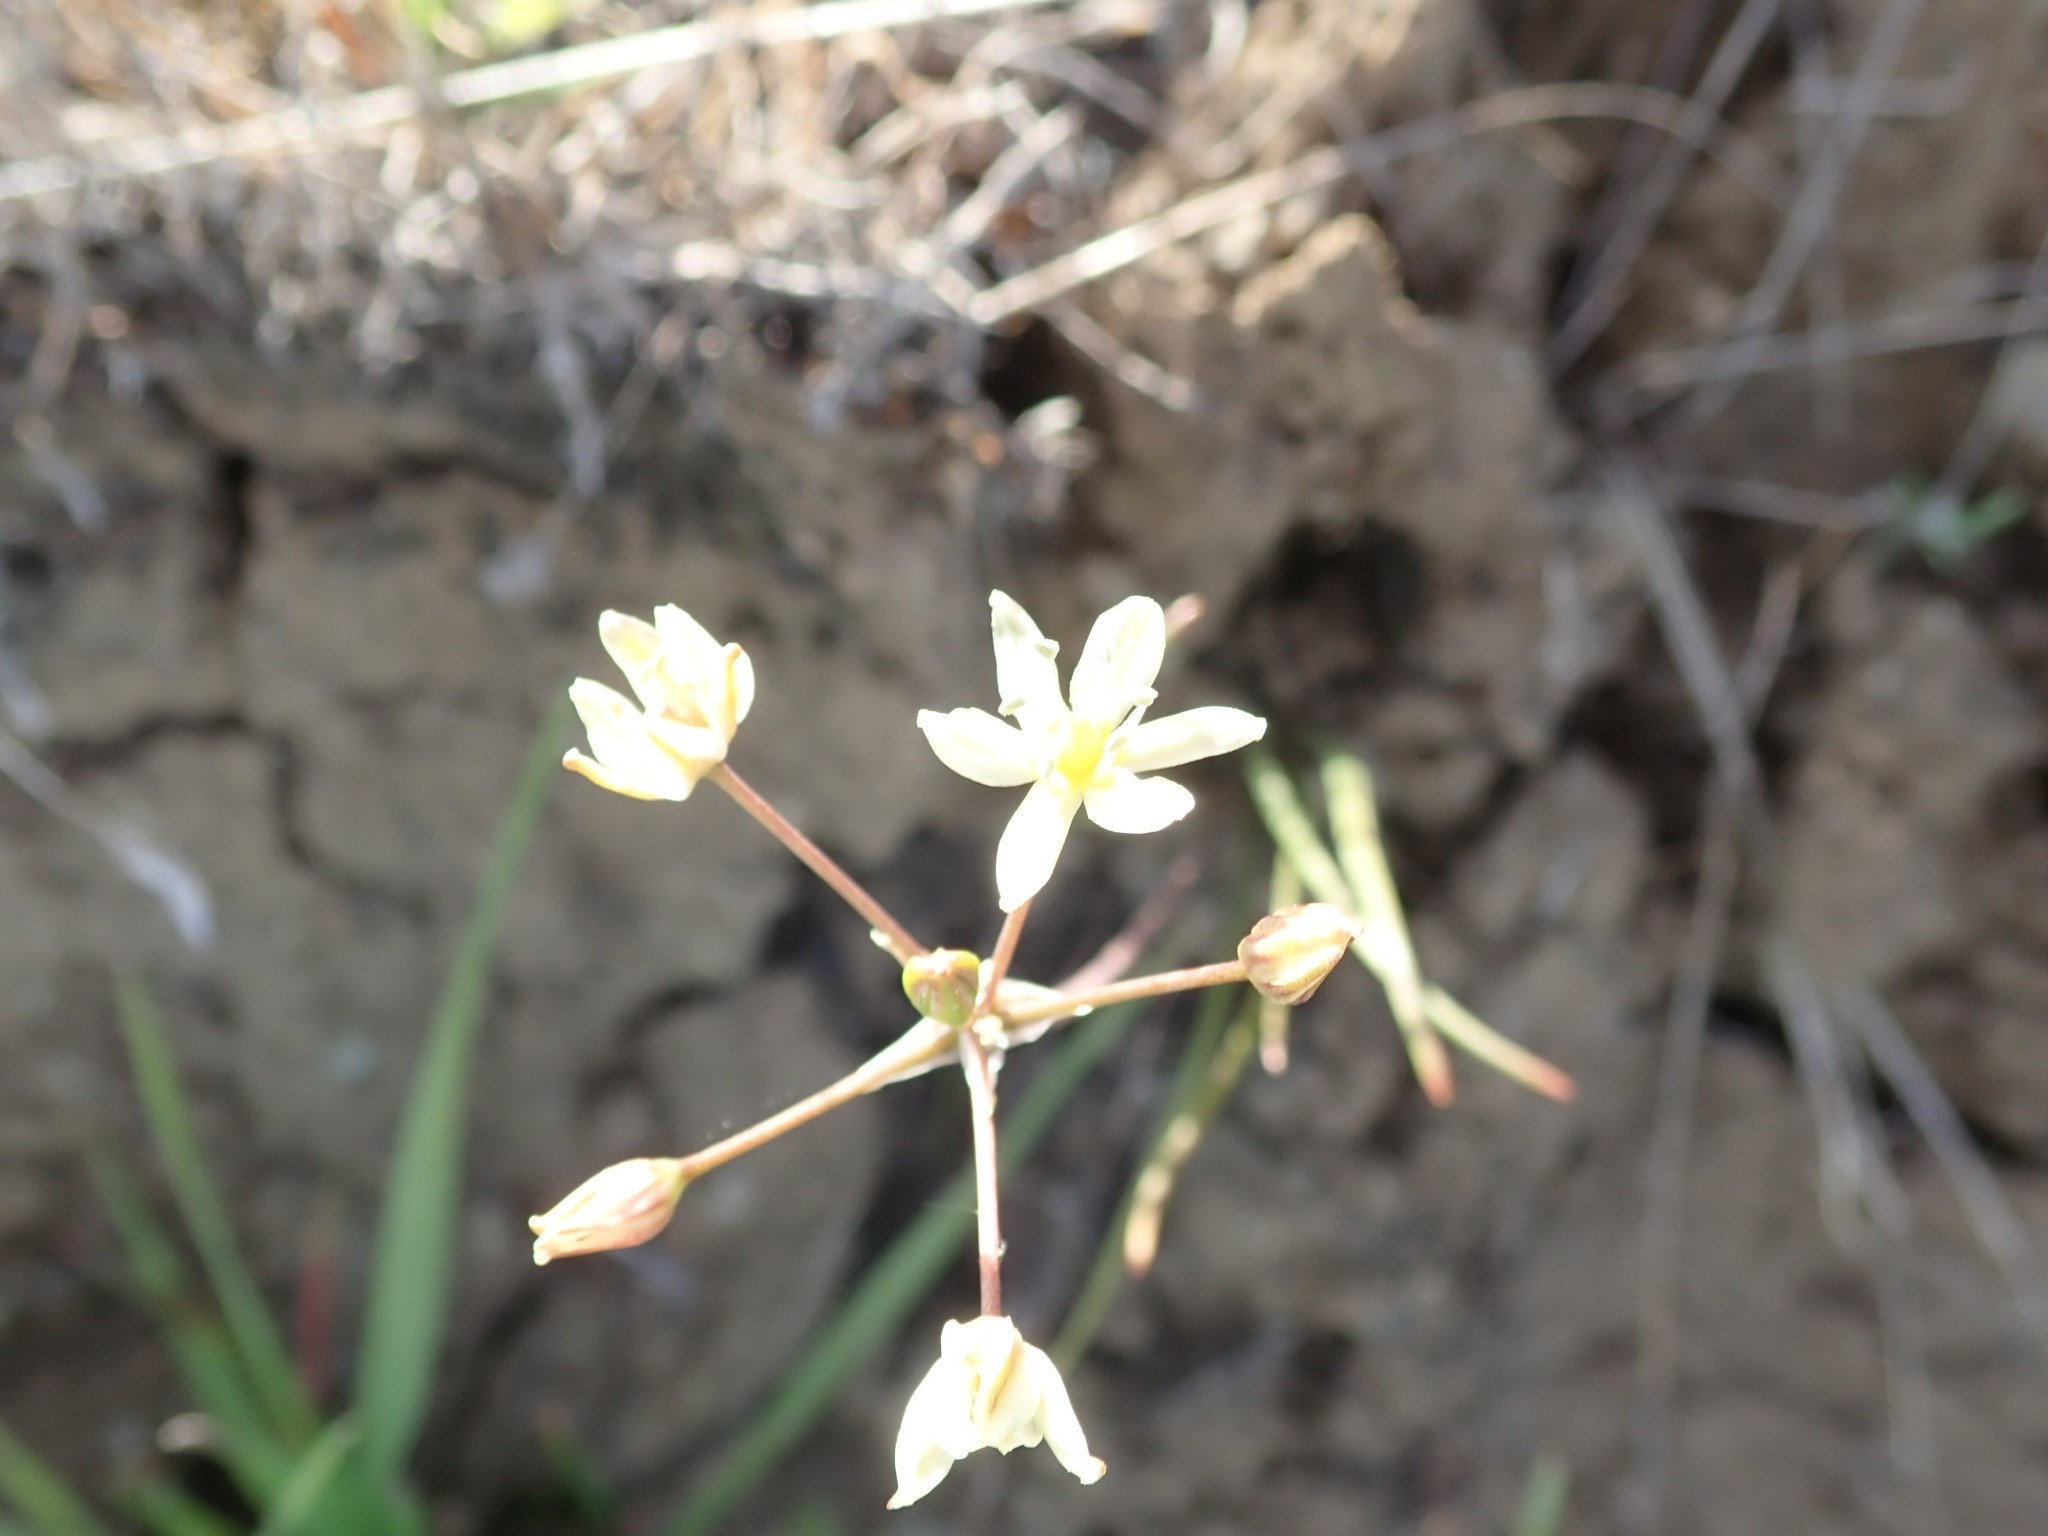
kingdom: Plantae
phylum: Tracheophyta
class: Liliopsida
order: Asparagales
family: Asparagaceae
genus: Muilla
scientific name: Muilla maritima
